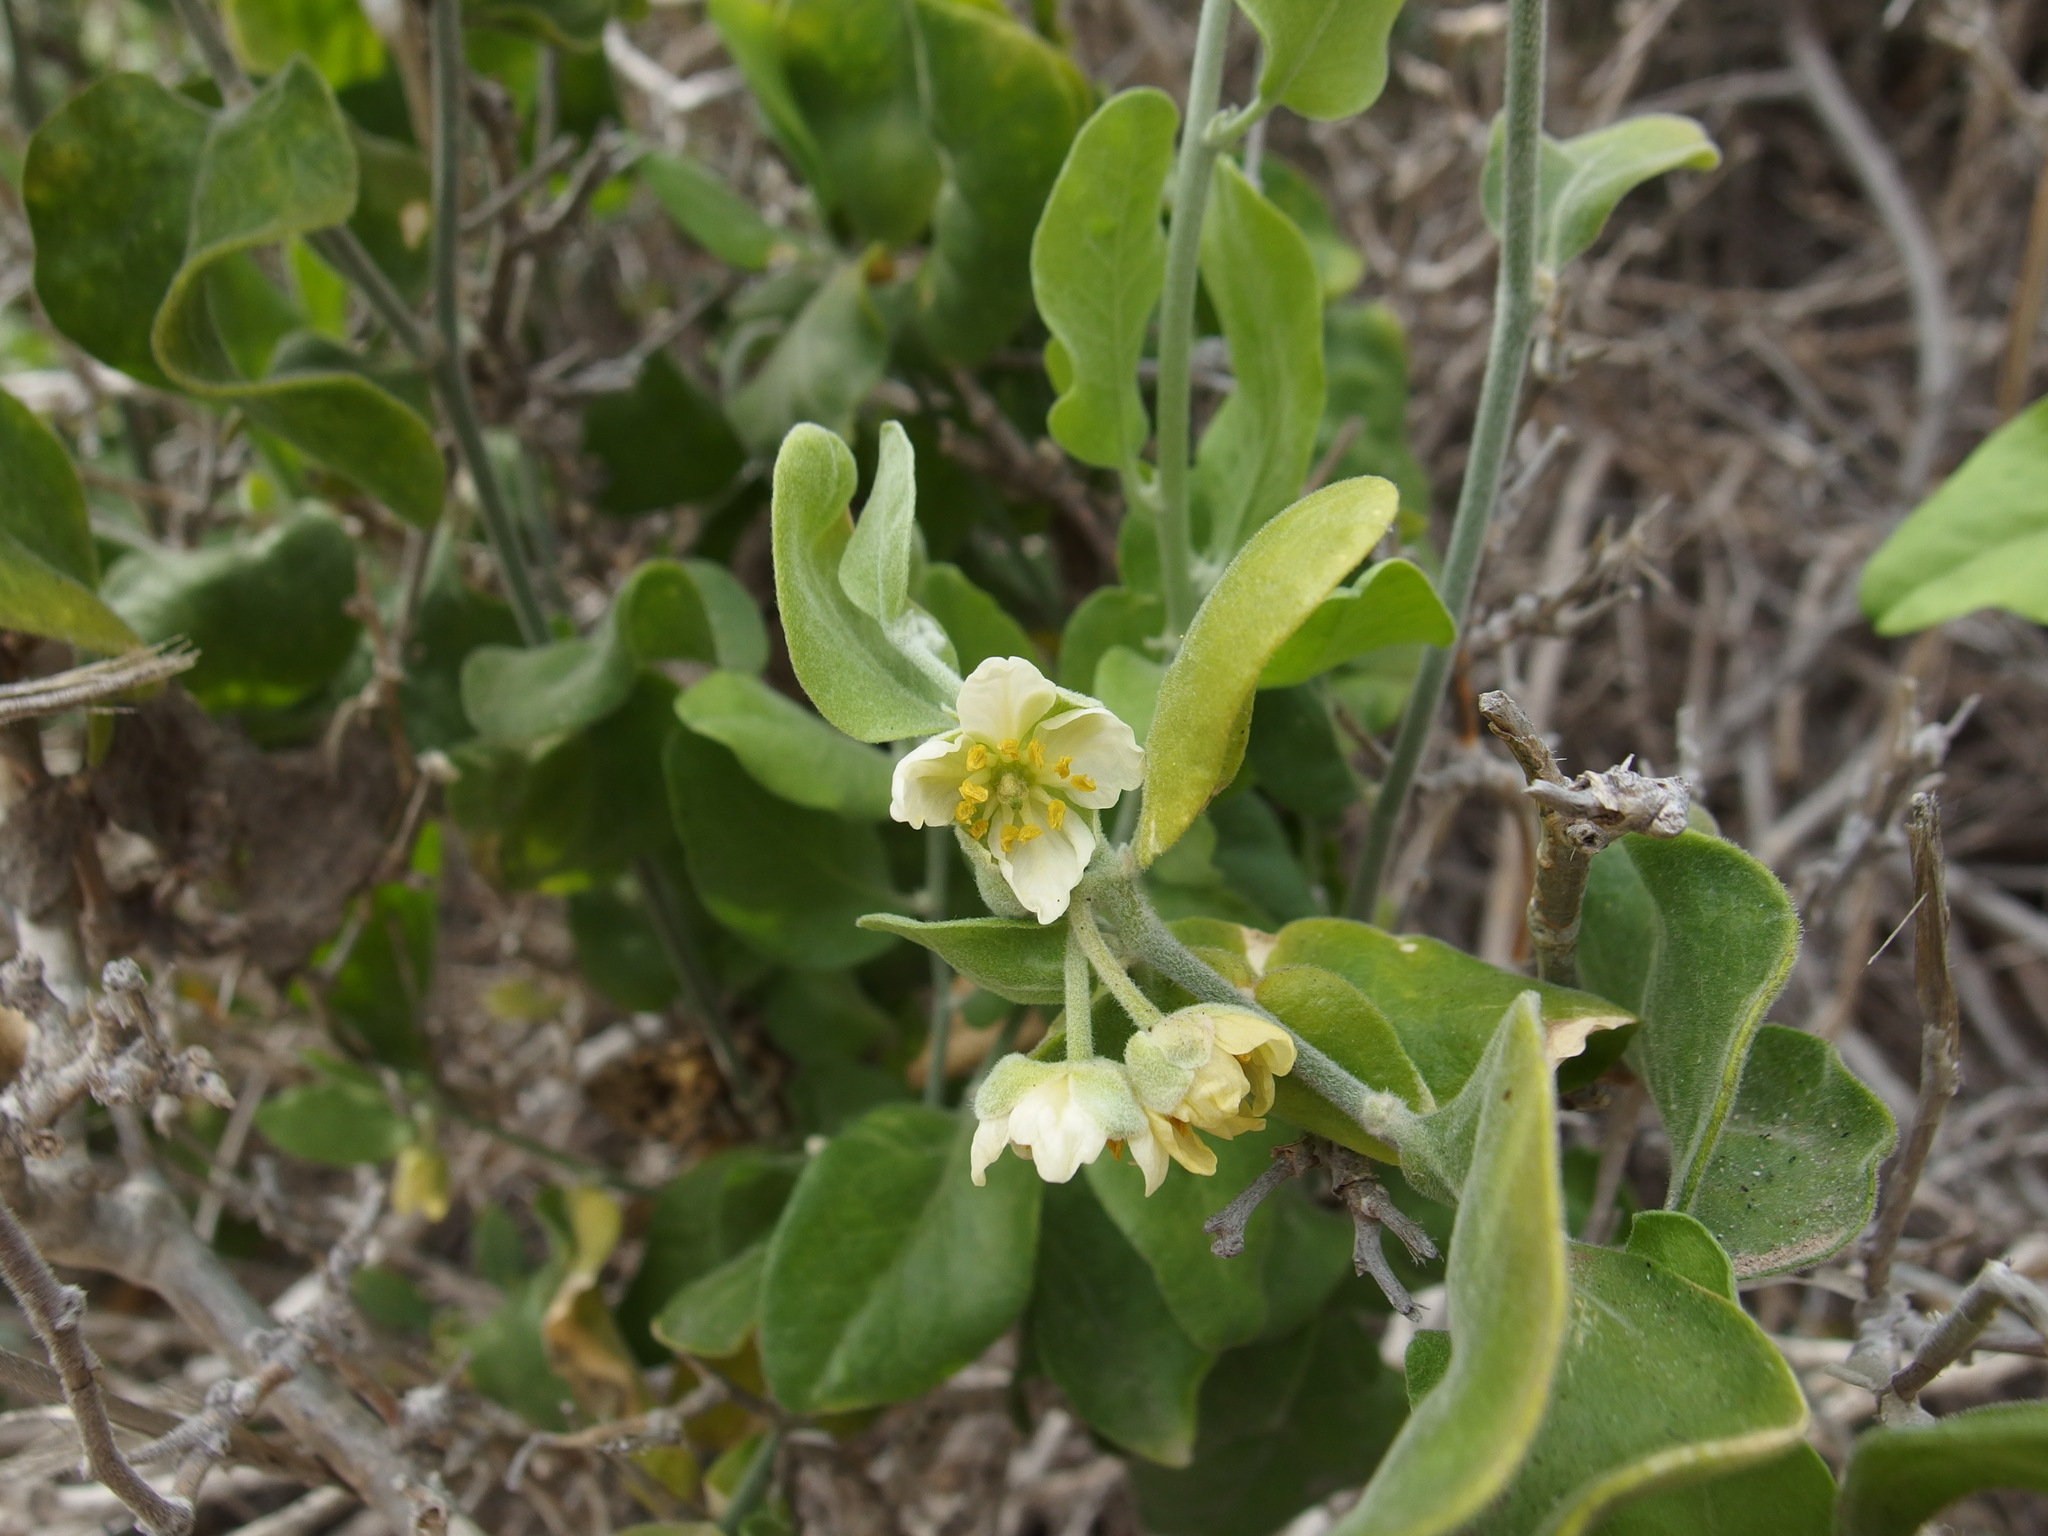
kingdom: Plantae
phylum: Tracheophyta
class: Magnoliopsida
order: Zygophyllales
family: Zygophyllaceae
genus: Viscainoa
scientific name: Viscainoa geniculata
